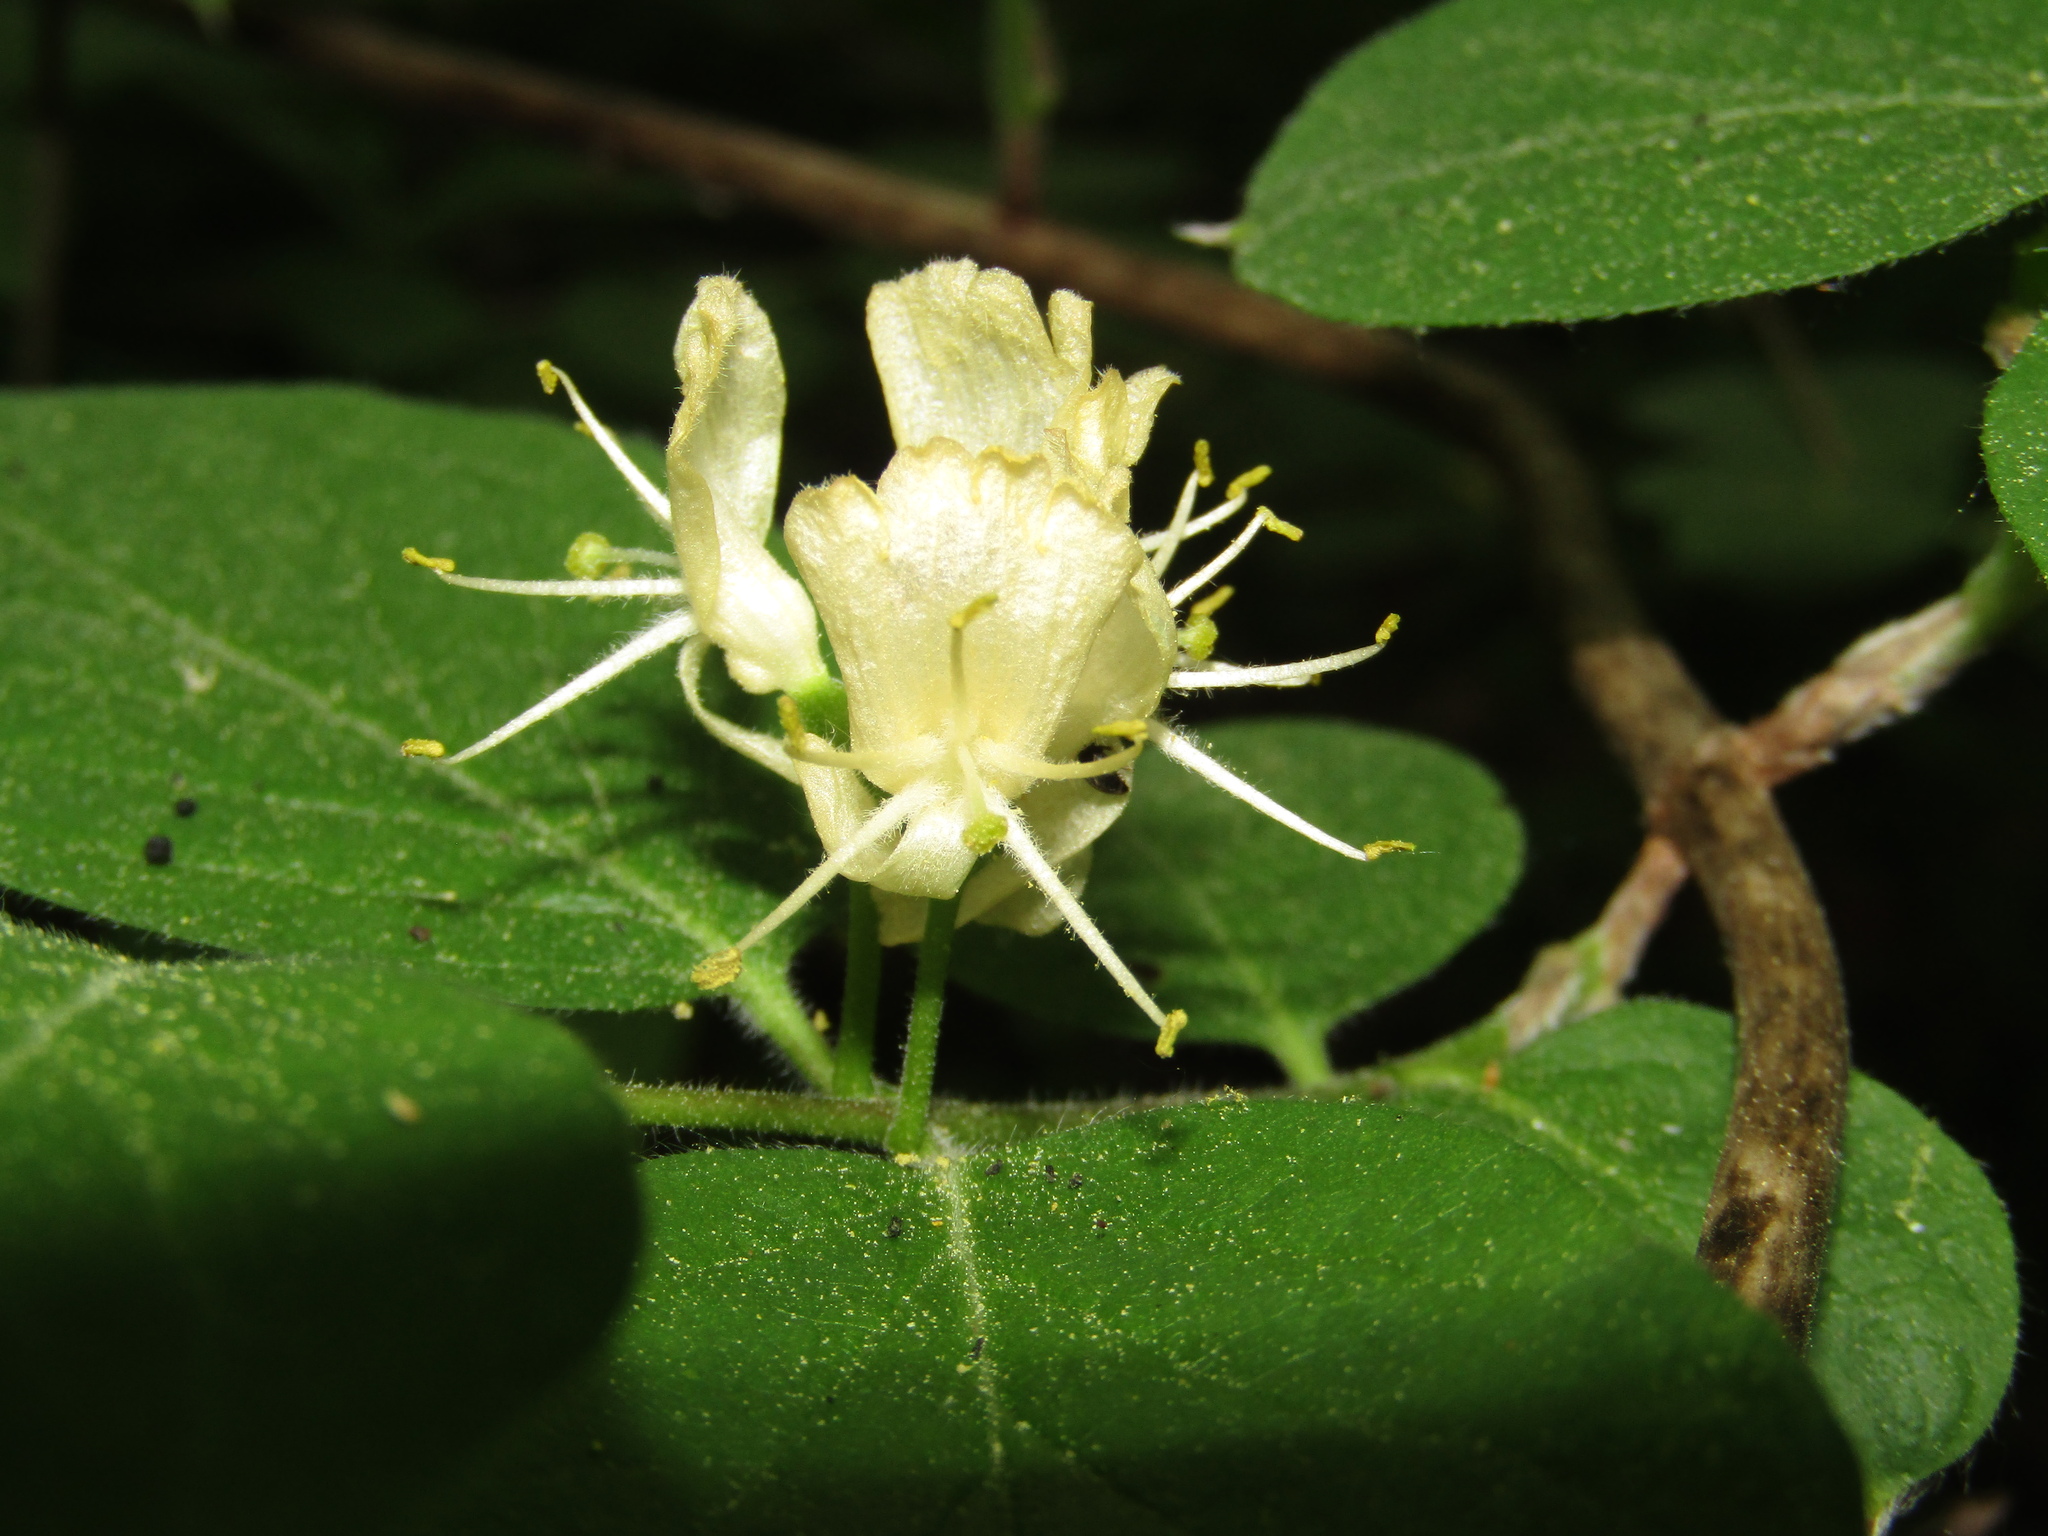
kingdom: Plantae
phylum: Tracheophyta
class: Magnoliopsida
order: Dipsacales
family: Caprifoliaceae
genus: Lonicera
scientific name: Lonicera xylosteum
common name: Fly honeysuckle
